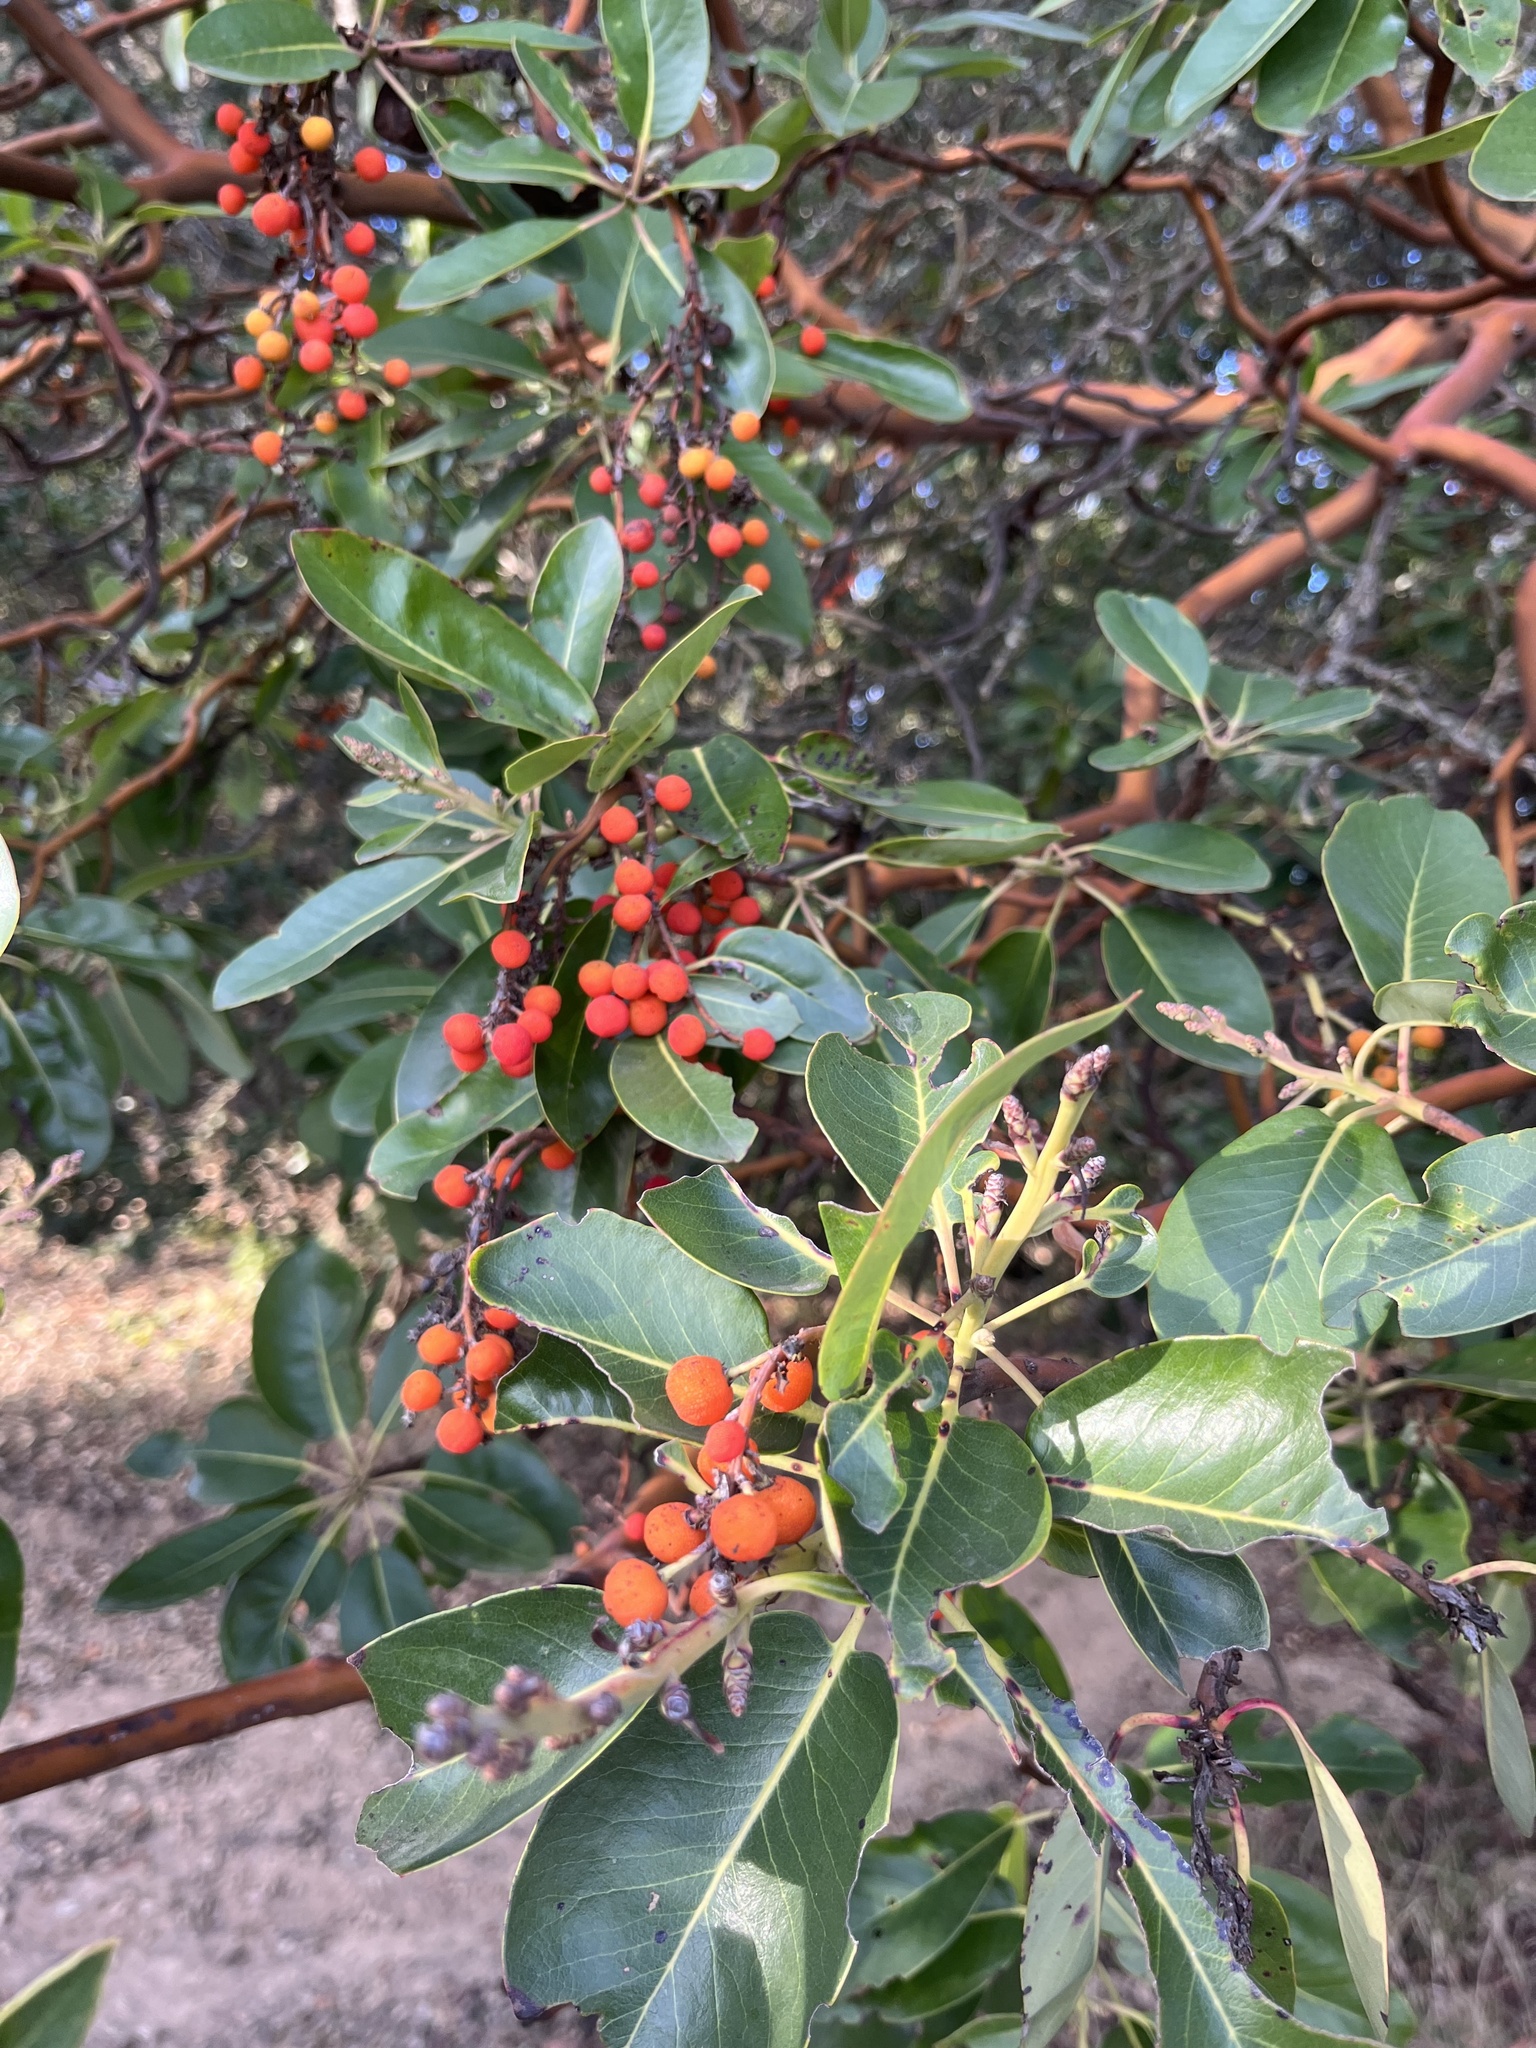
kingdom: Plantae
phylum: Tracheophyta
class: Magnoliopsida
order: Ericales
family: Ericaceae
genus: Arbutus
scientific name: Arbutus menziesii
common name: Pacific madrone
